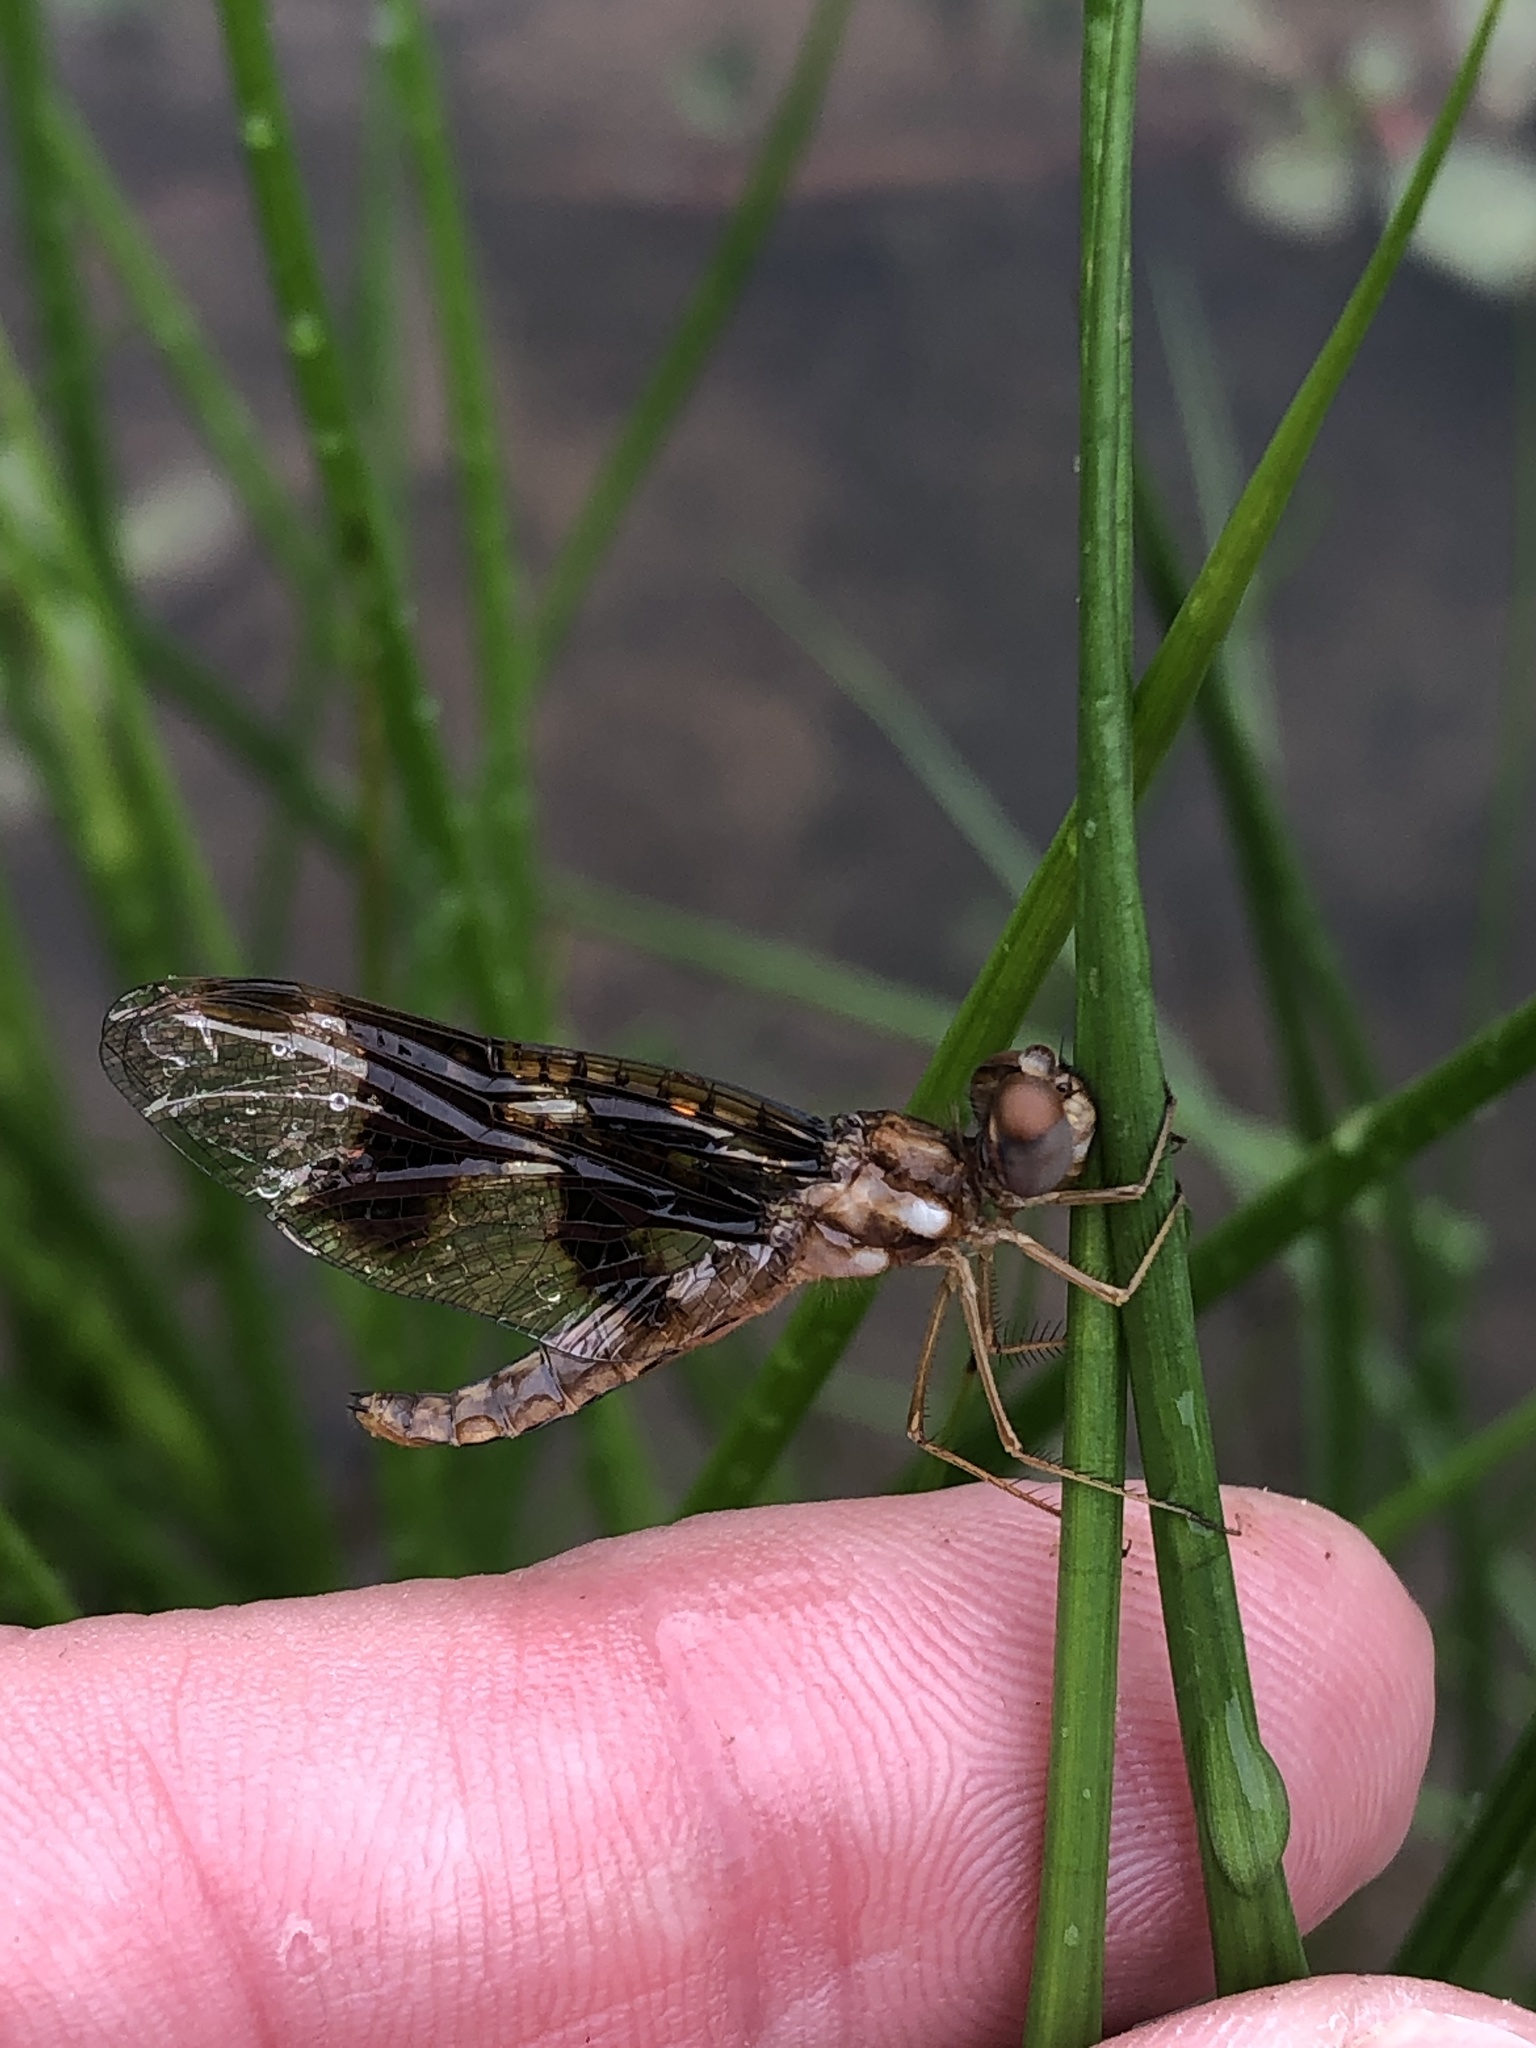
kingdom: Animalia
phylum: Arthropoda
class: Insecta
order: Odonata
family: Libellulidae
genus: Perithemis
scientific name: Perithemis tenera
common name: Eastern amberwing
